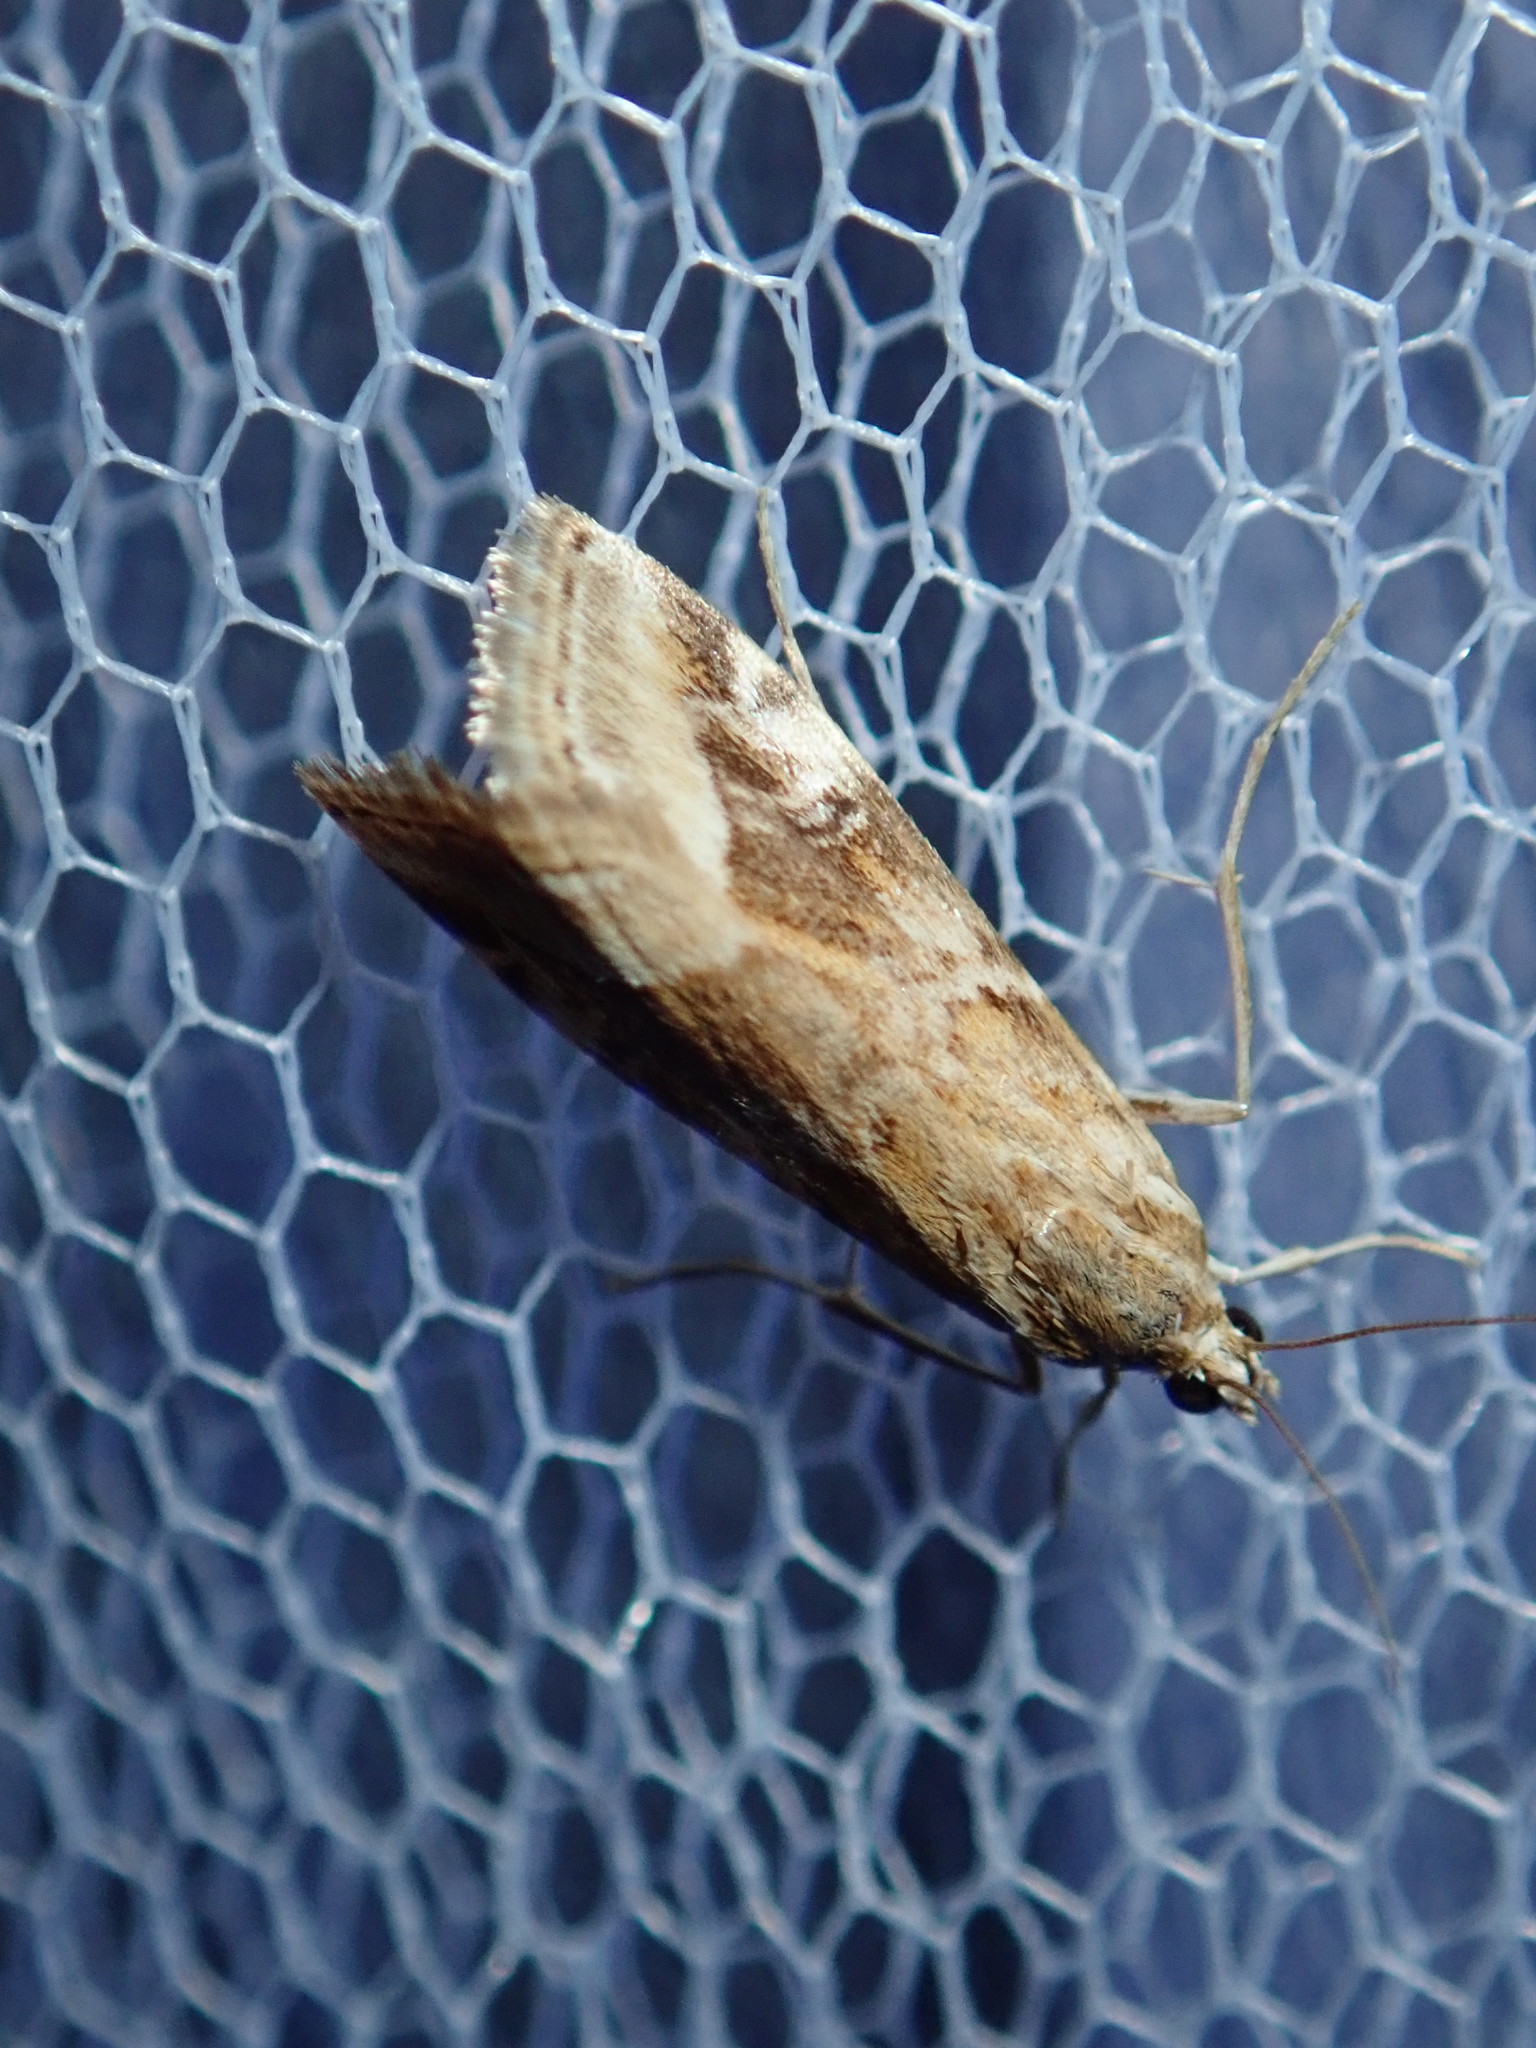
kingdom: Animalia
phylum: Arthropoda
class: Insecta
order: Lepidoptera
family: Crambidae
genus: Hellula
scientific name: Hellula hydralis
